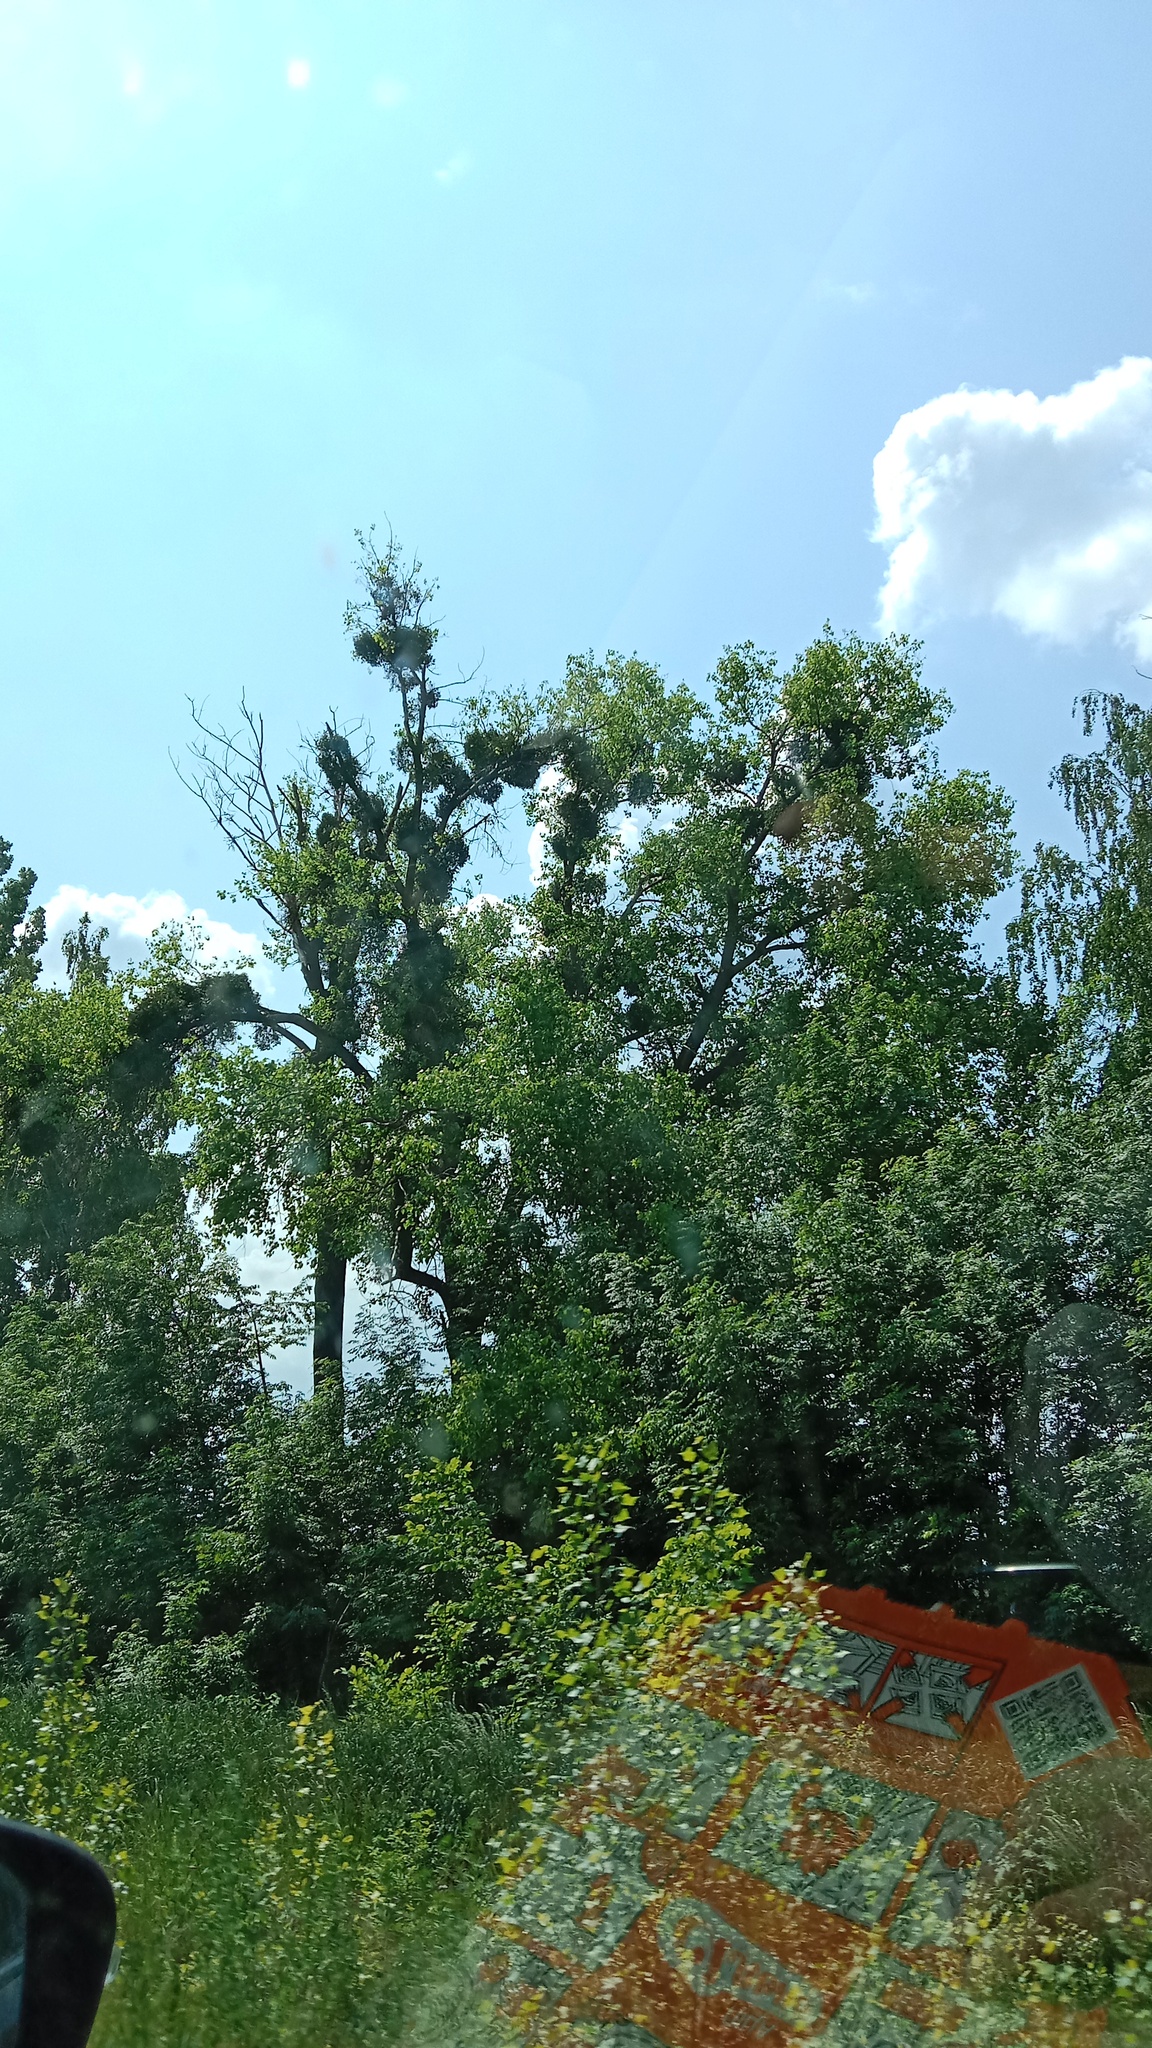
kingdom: Plantae
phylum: Tracheophyta
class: Magnoliopsida
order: Santalales
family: Viscaceae
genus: Viscum
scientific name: Viscum album
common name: Mistletoe
